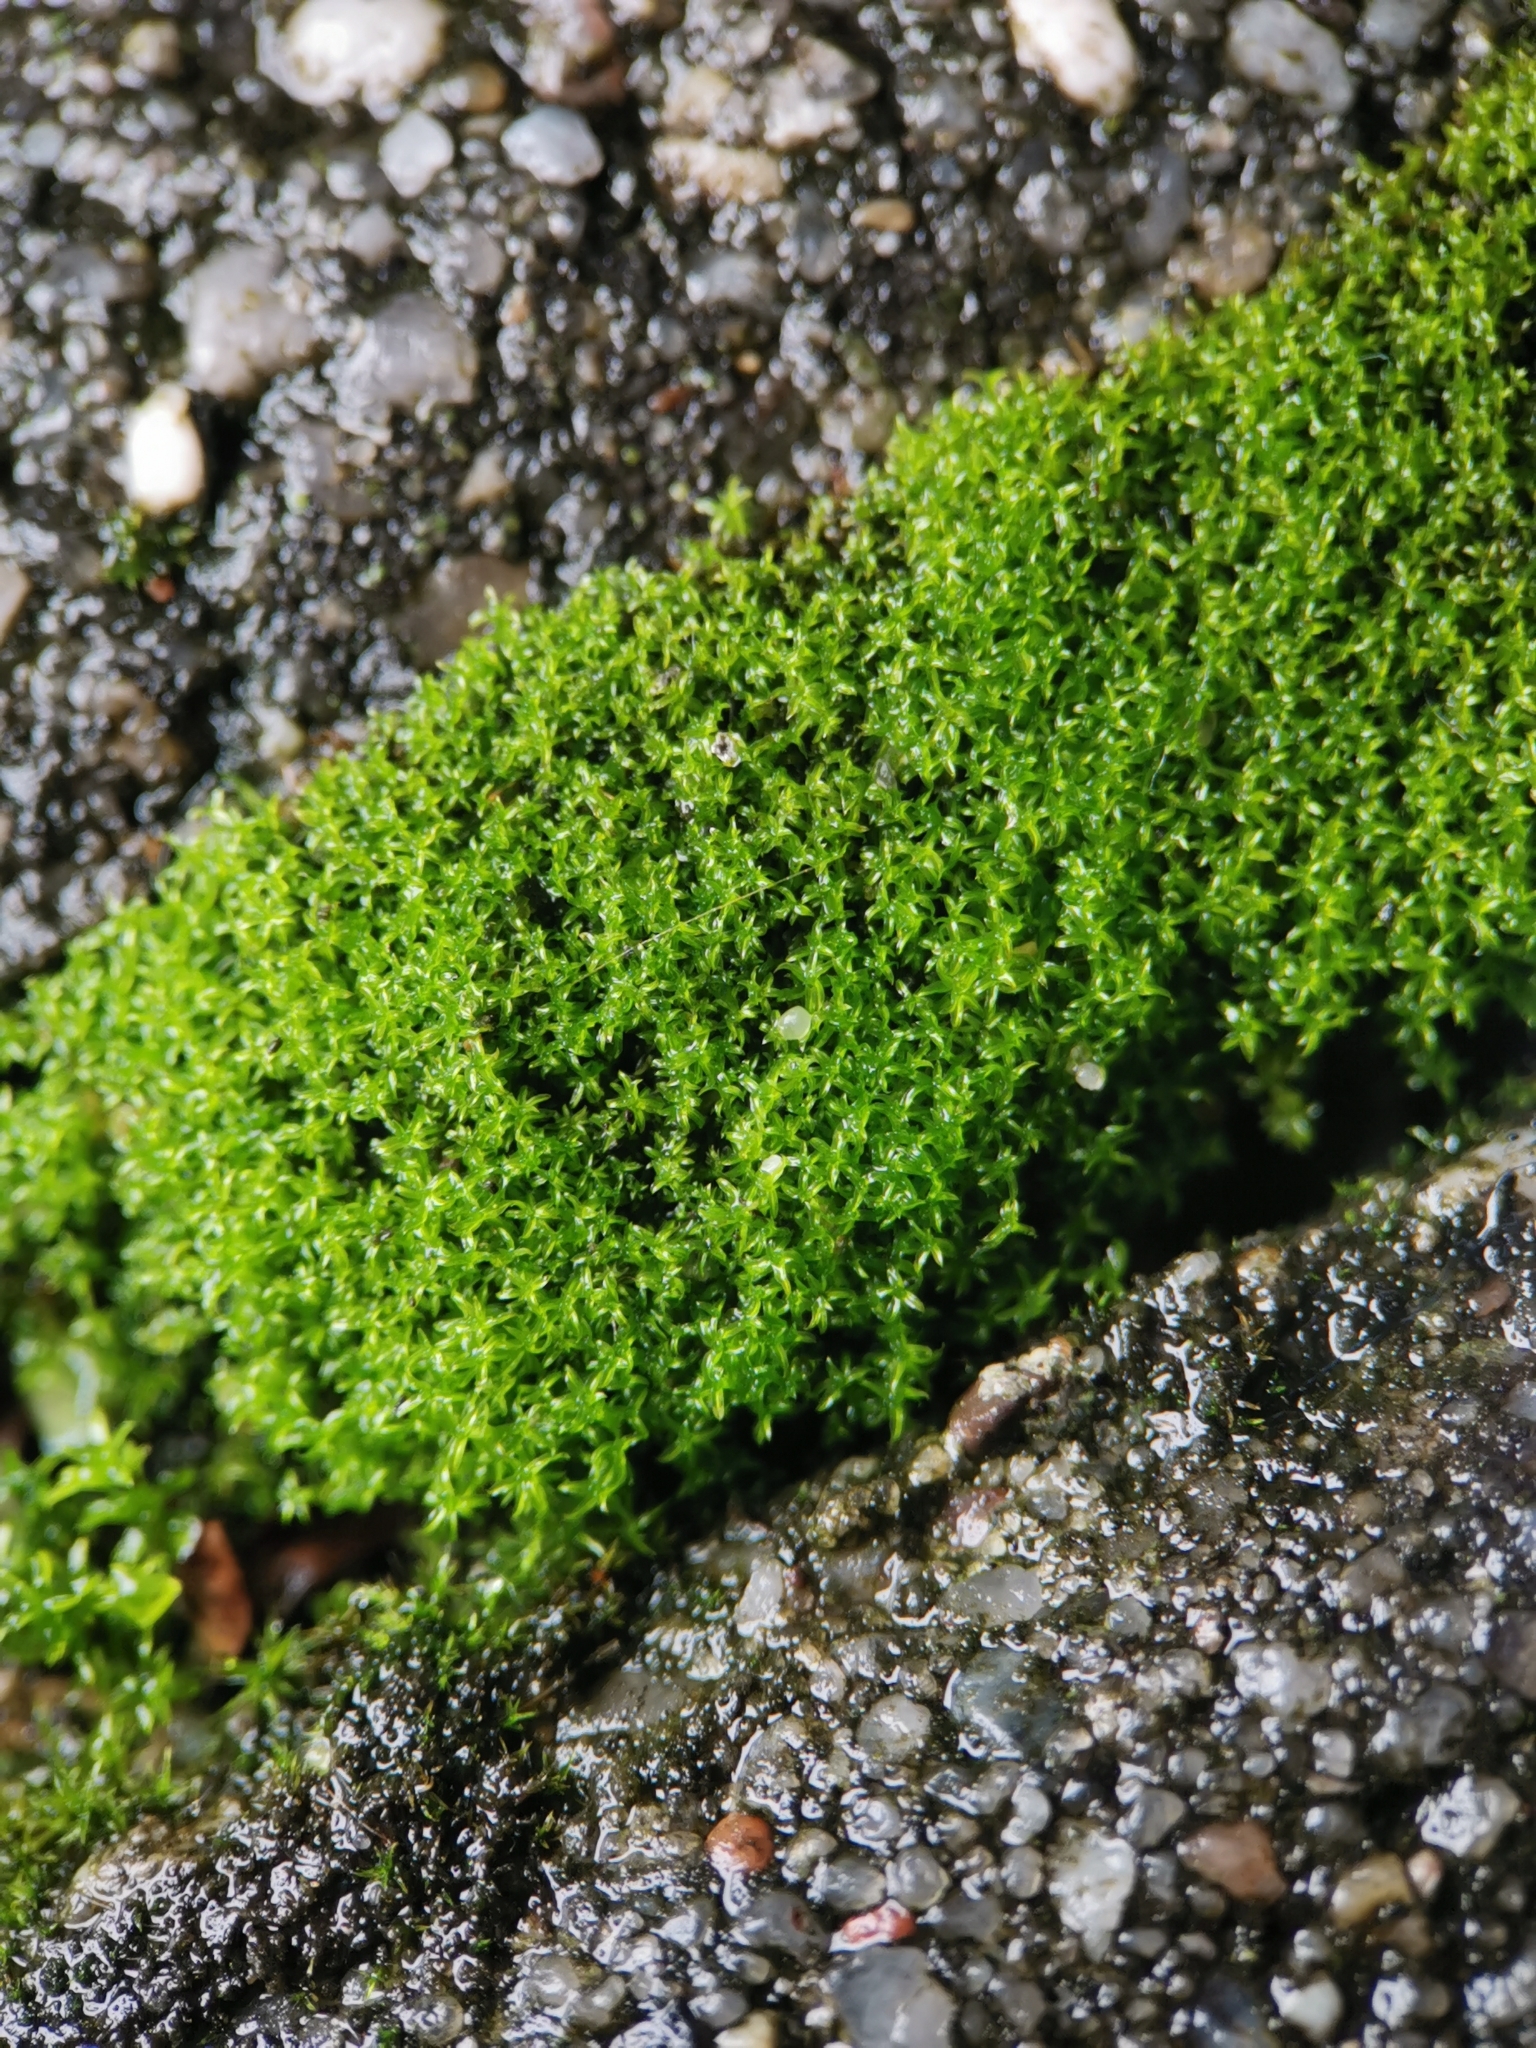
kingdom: Plantae
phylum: Bryophyta
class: Bryopsida
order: Pottiales
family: Pottiaceae
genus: Streblotrichum
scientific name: Streblotrichum convolutum
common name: Lesser bird's-claw beard-moss
